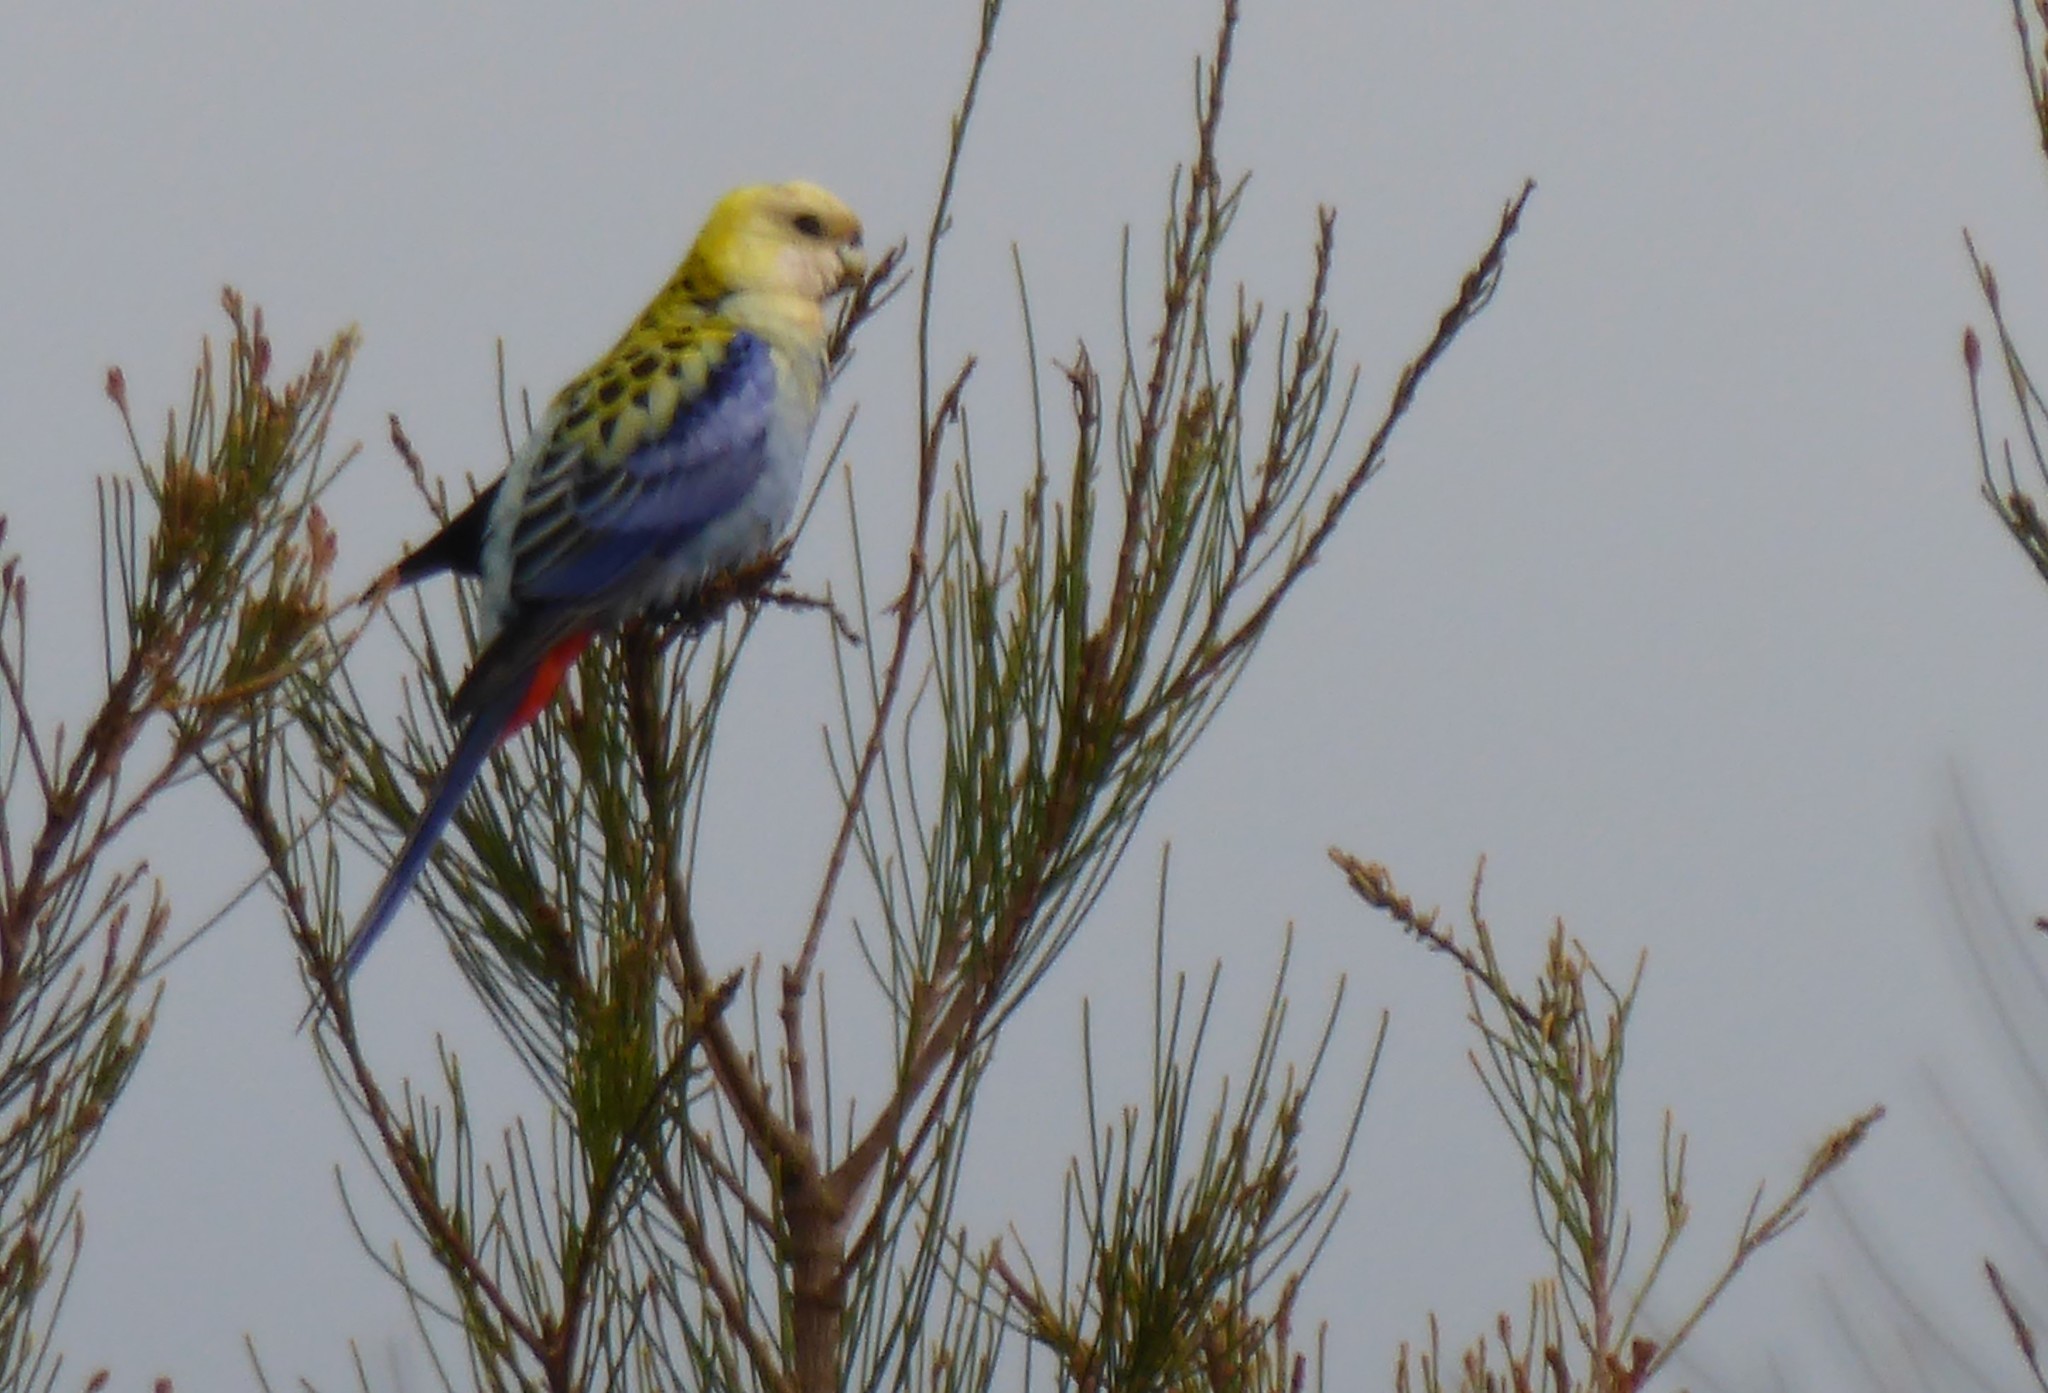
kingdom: Animalia
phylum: Chordata
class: Aves
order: Psittaciformes
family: Psittacidae
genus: Platycercus
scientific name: Platycercus adscitus
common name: Pale-headed rosella
